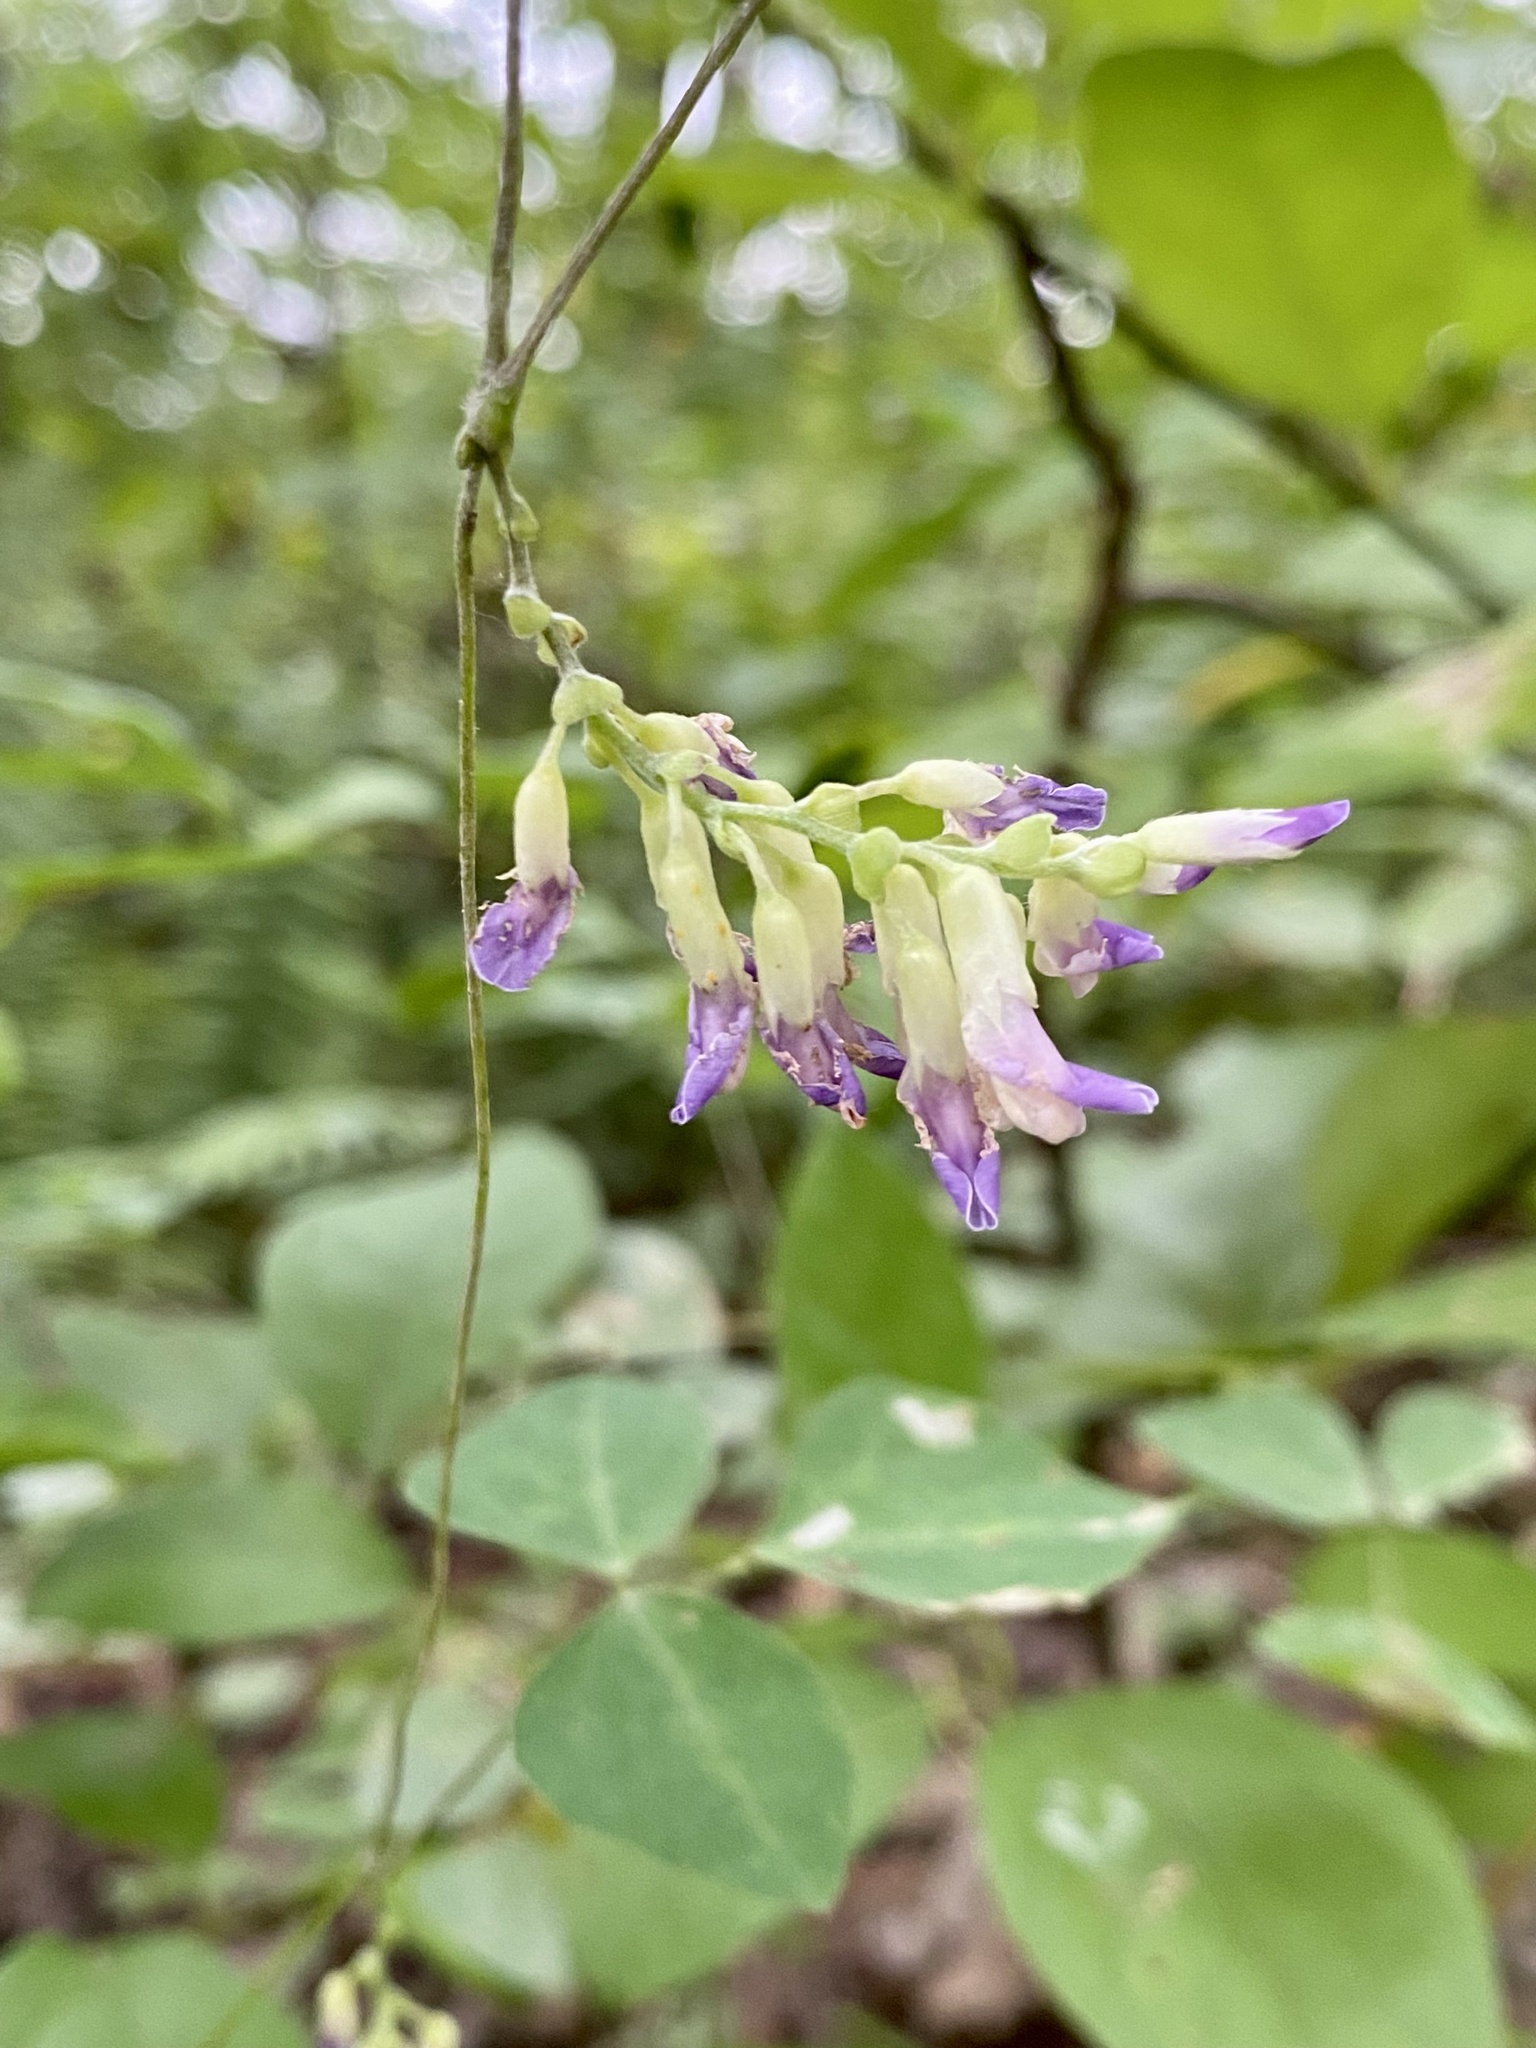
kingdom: Plantae
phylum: Tracheophyta
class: Magnoliopsida
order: Fabales
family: Fabaceae
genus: Amphicarpaea
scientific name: Amphicarpaea bracteata
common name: American hog peanut
